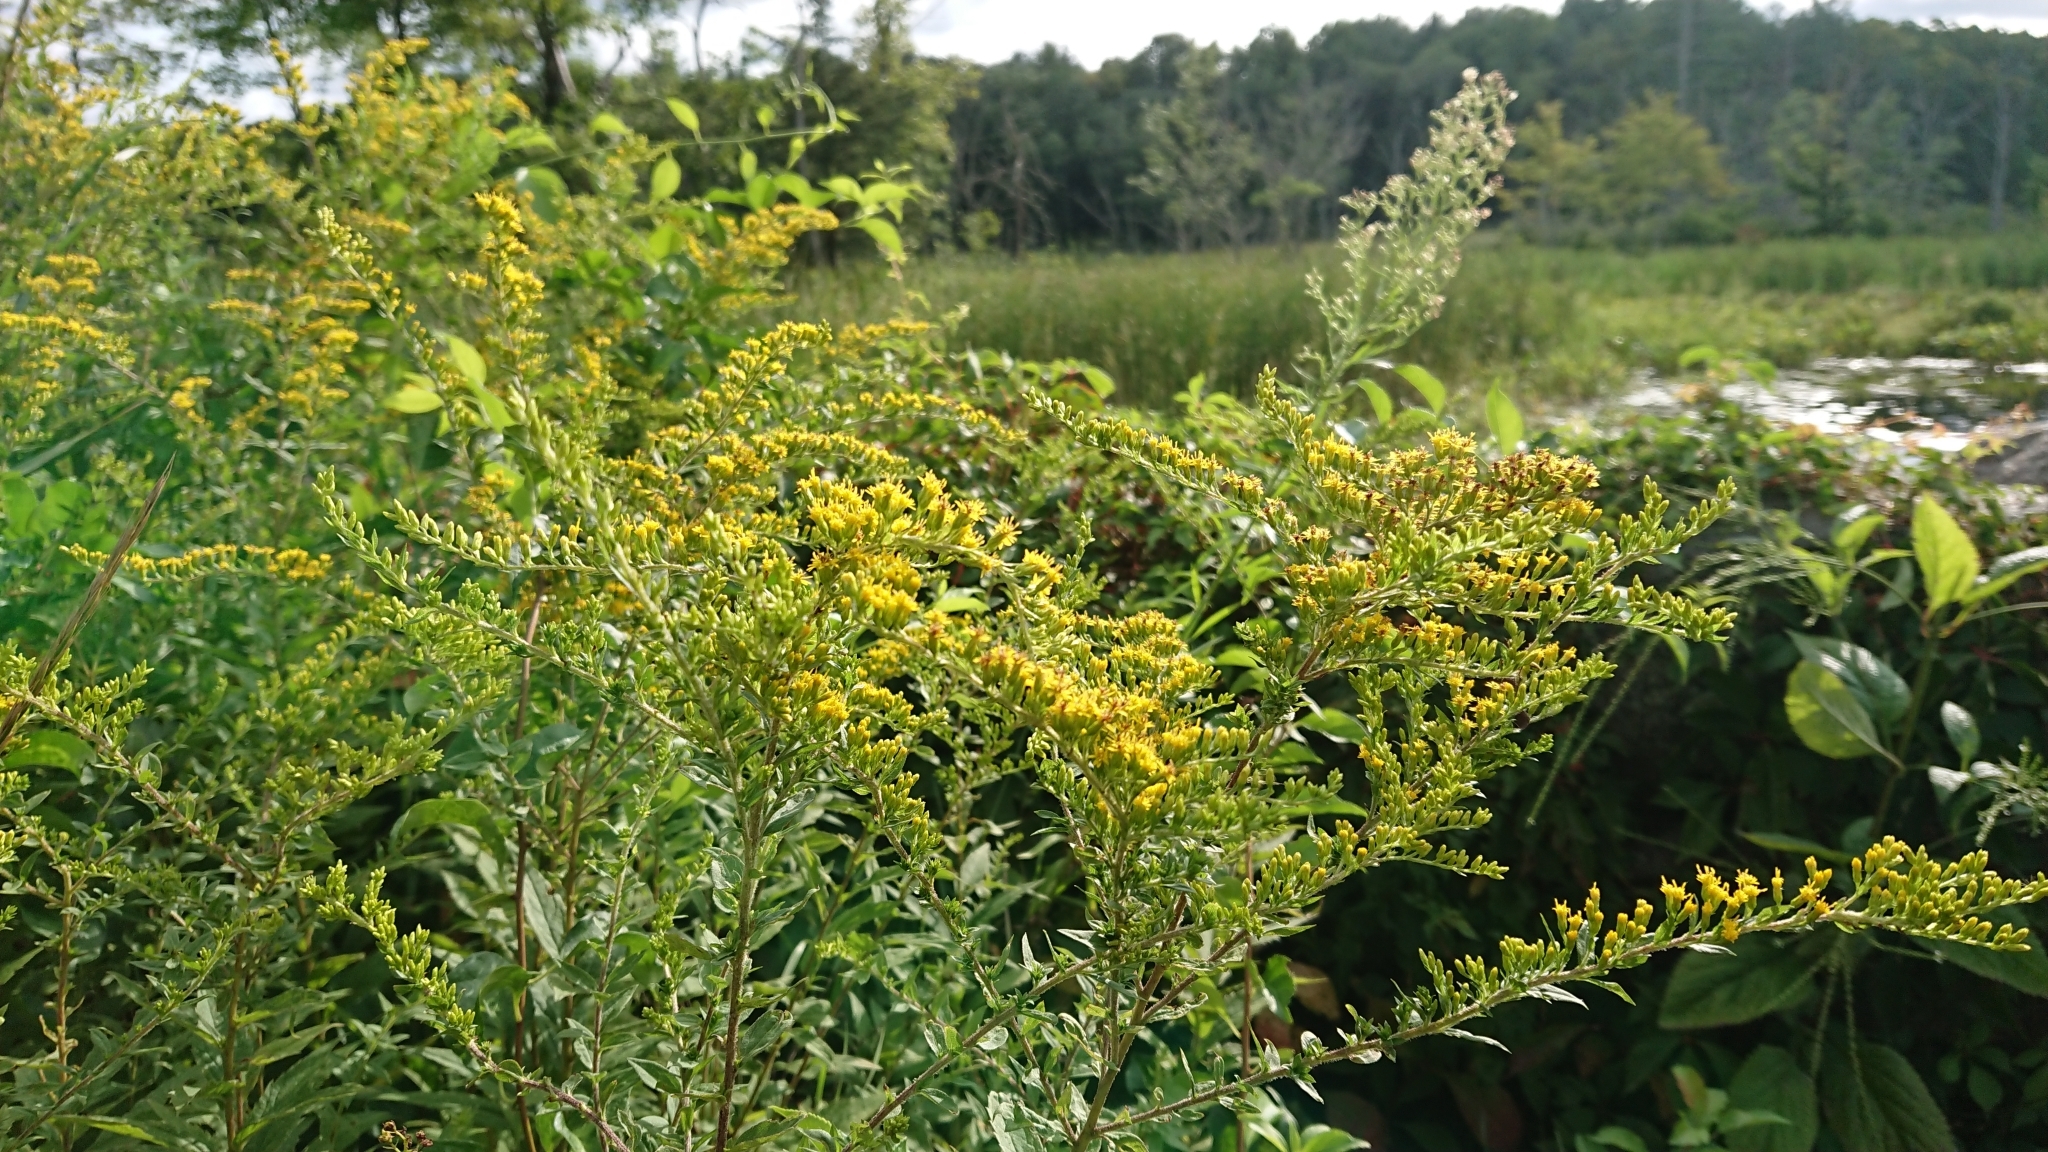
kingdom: Plantae
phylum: Tracheophyta
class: Magnoliopsida
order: Asterales
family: Asteraceae
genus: Solidago
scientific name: Solidago juncea
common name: Early goldenrod
